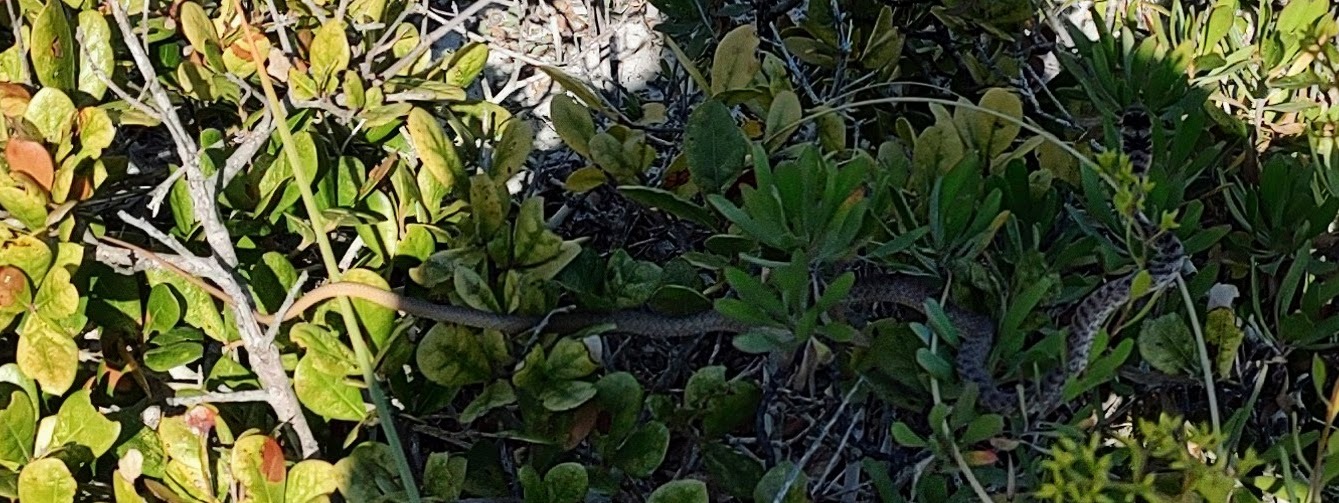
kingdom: Animalia
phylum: Chordata
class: Squamata
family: Colubridae
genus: Masticophis
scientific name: Masticophis flagellum
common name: Coachwhip
